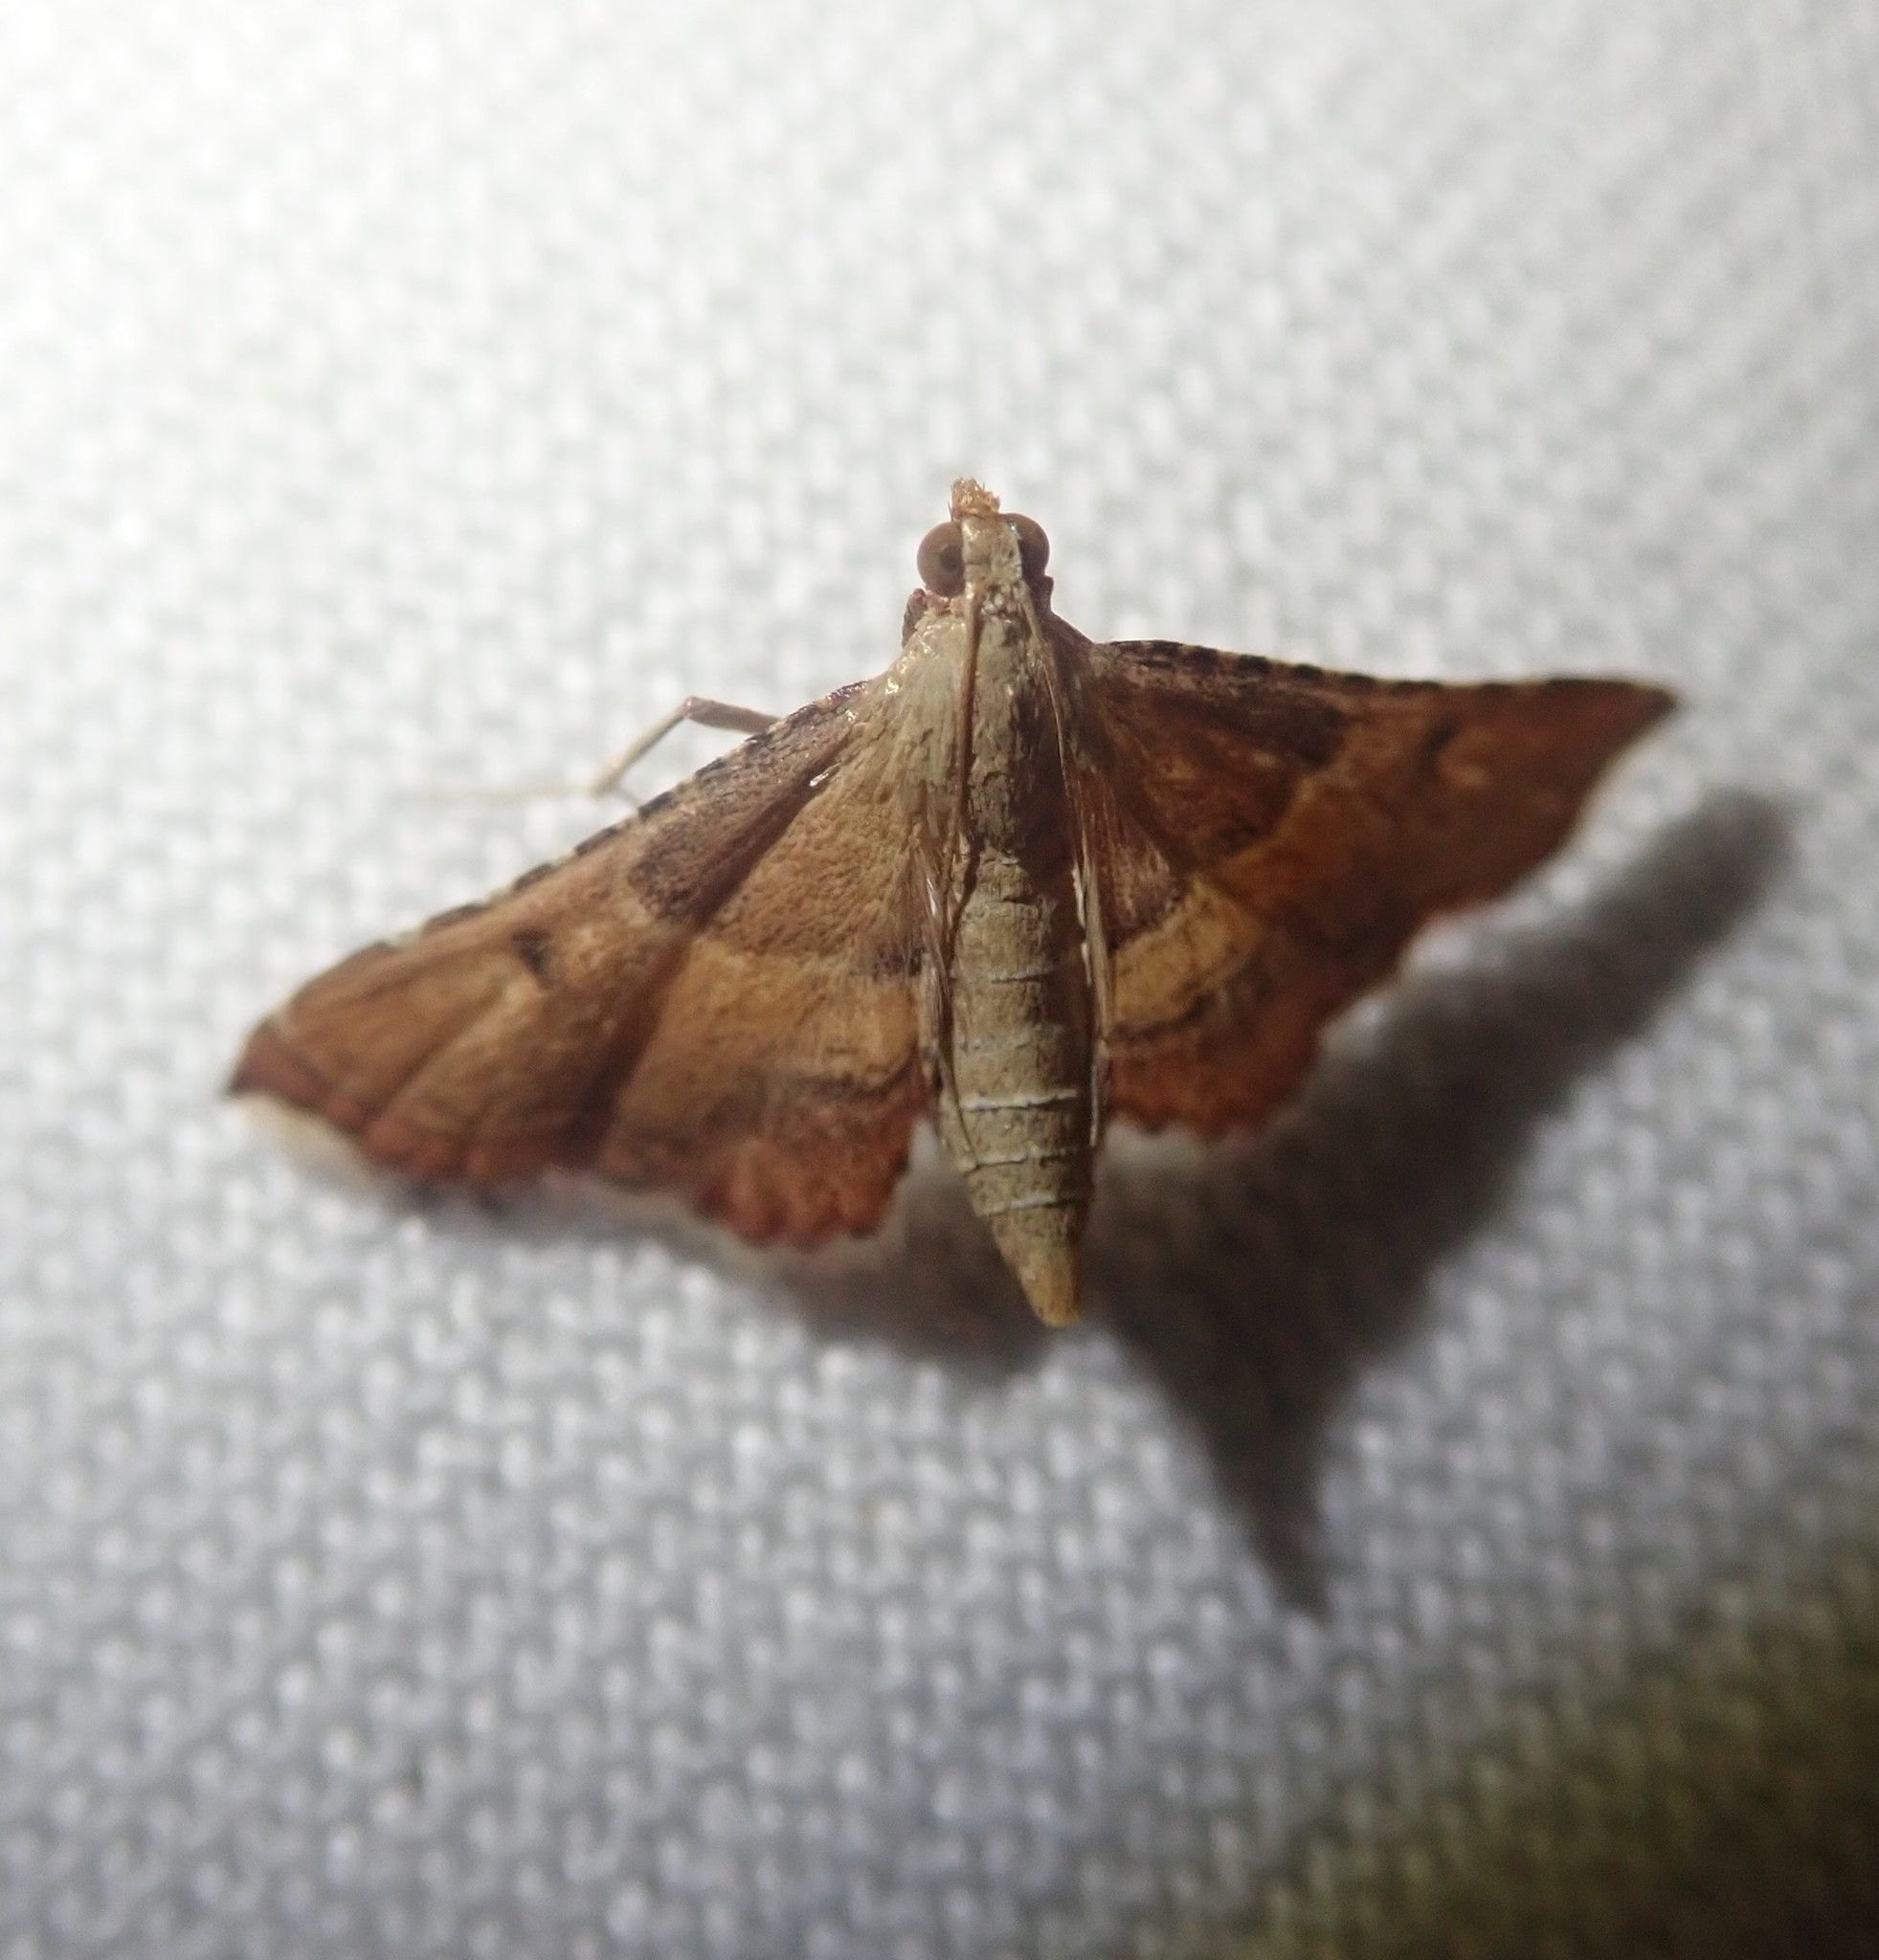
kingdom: Animalia
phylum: Arthropoda
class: Insecta
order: Lepidoptera
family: Pyralidae
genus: Endotricha
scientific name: Endotricha flammealis
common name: Rosy tabby
